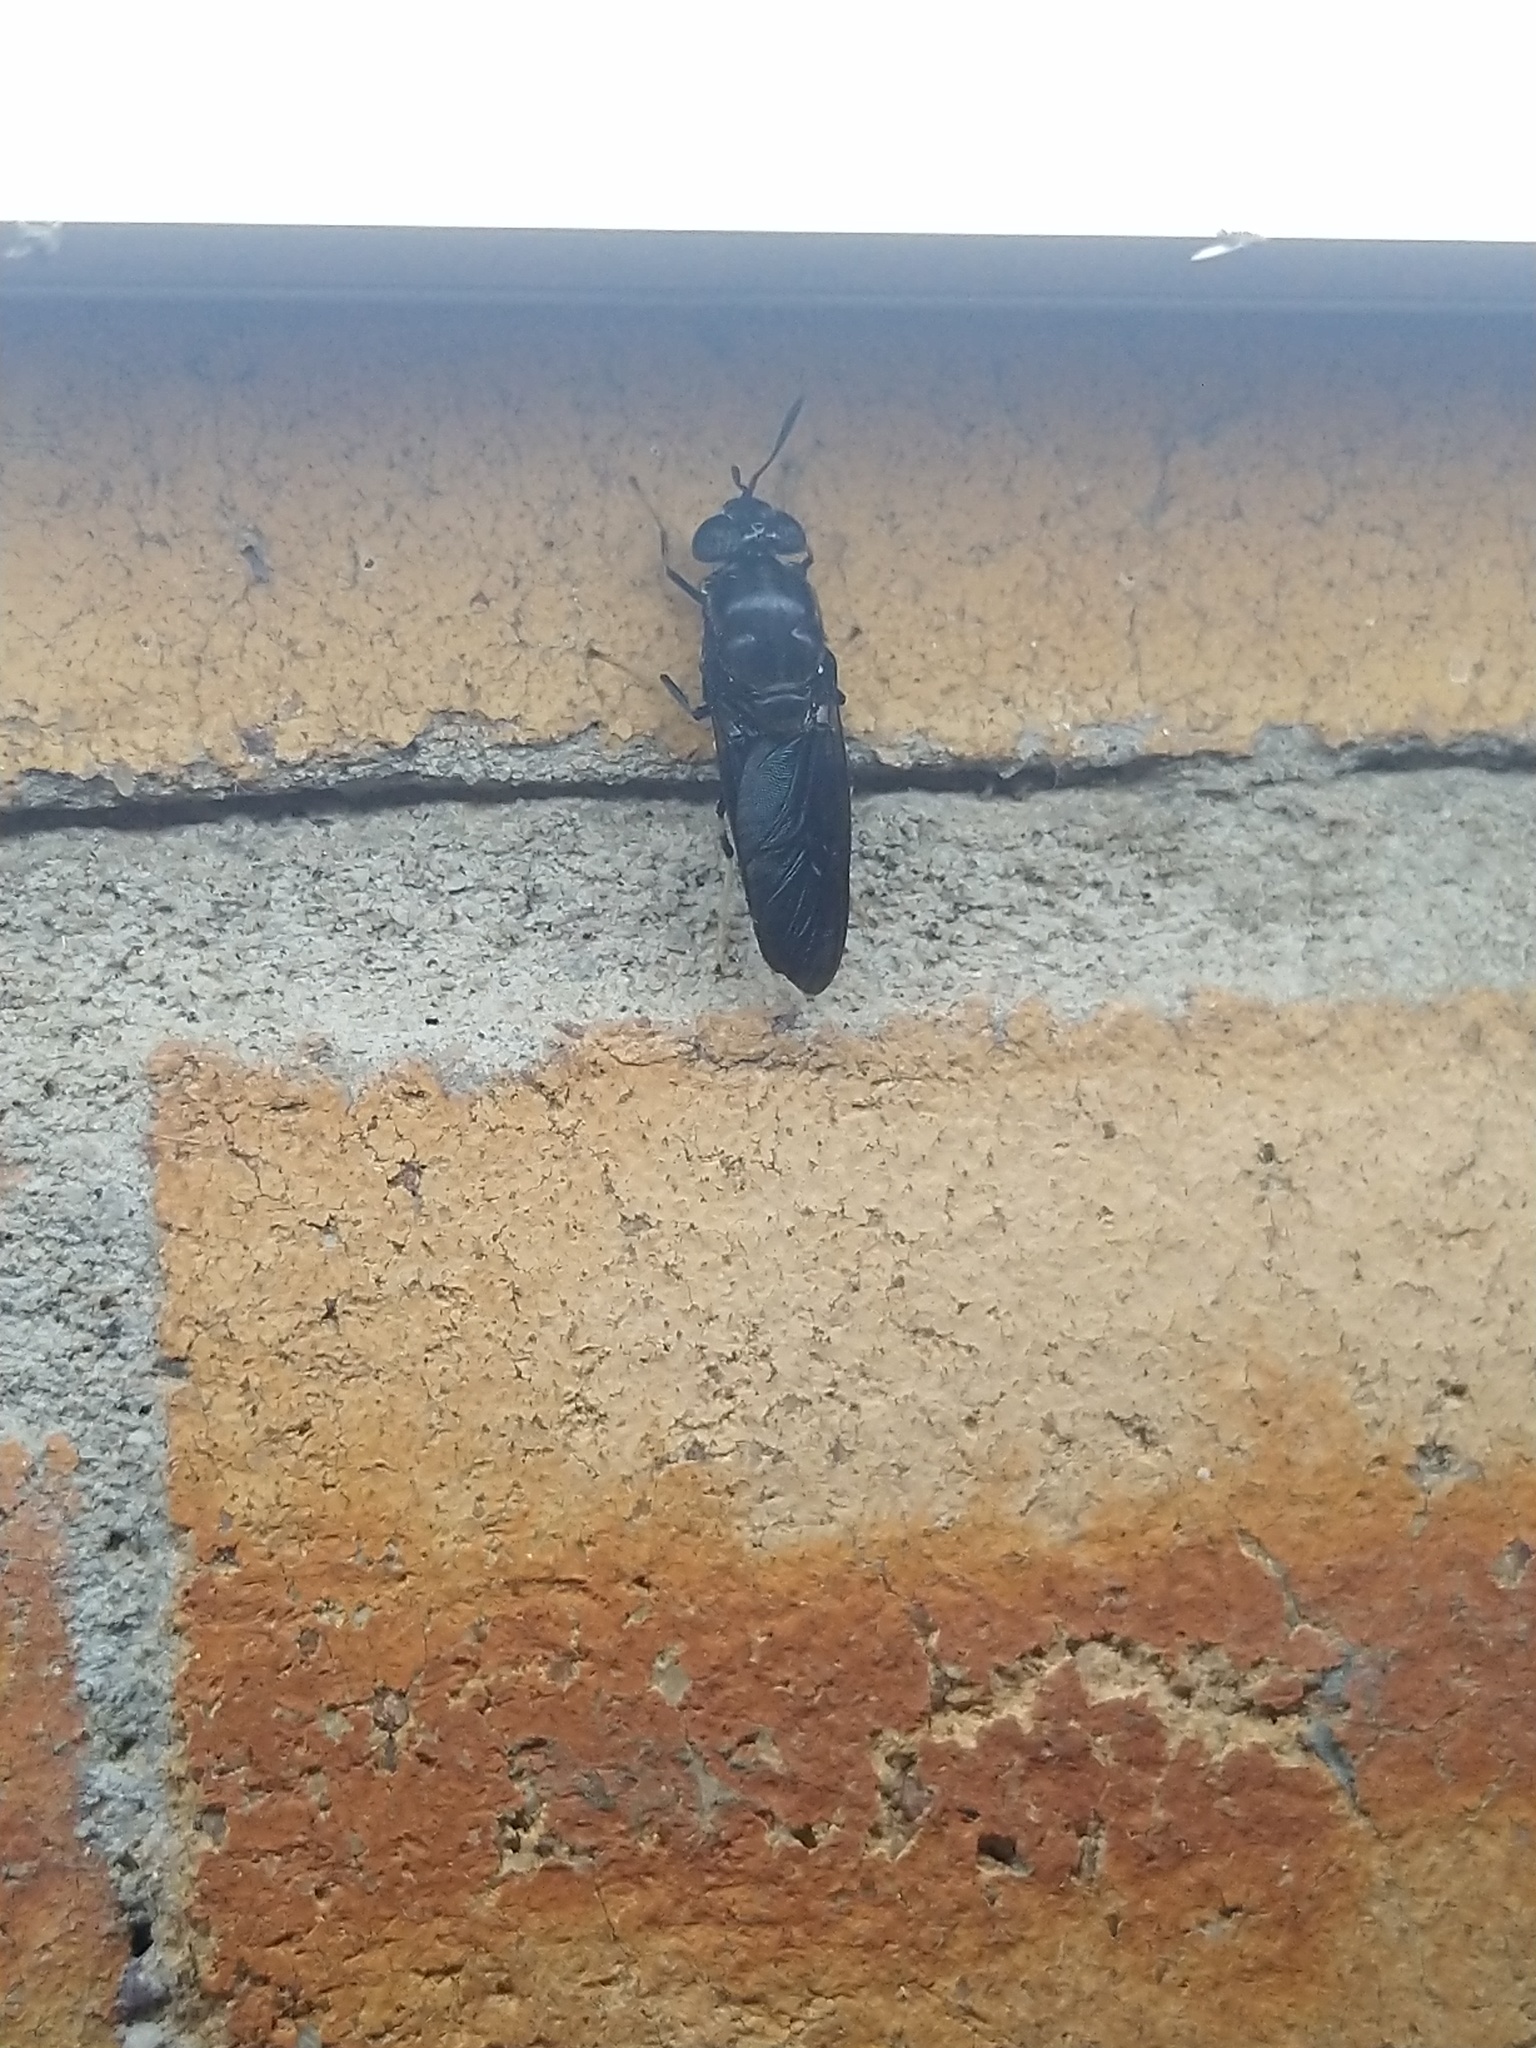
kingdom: Animalia
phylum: Arthropoda
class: Insecta
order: Diptera
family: Stratiomyidae
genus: Hermetia
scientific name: Hermetia illucens
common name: Black soldier fly
